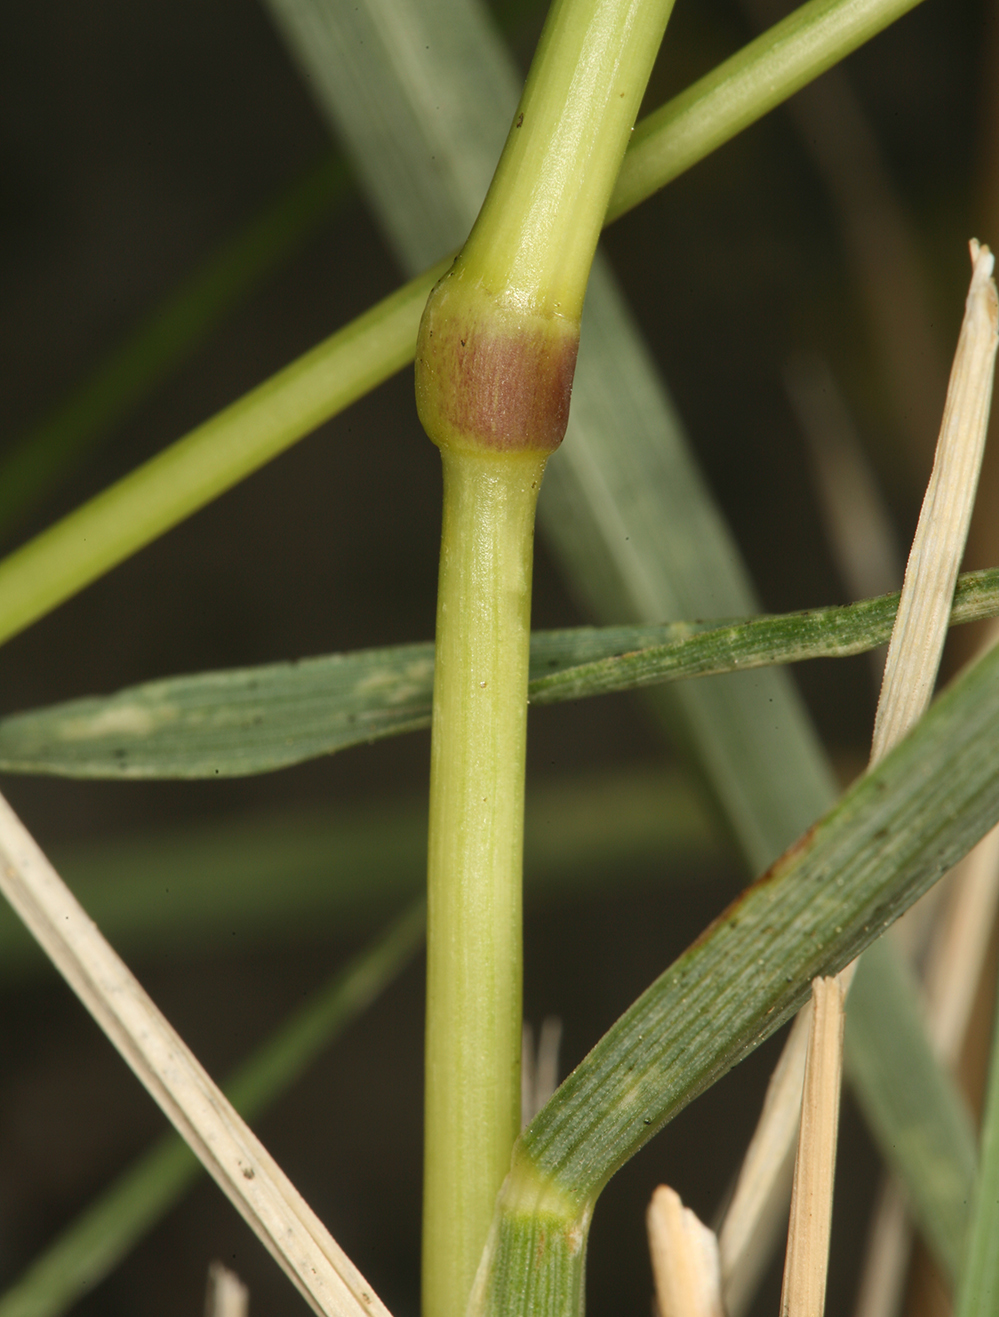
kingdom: Plantae
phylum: Tracheophyta
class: Liliopsida
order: Poales
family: Poaceae
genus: Festuca
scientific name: Festuca kingii
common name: Spike fescue
